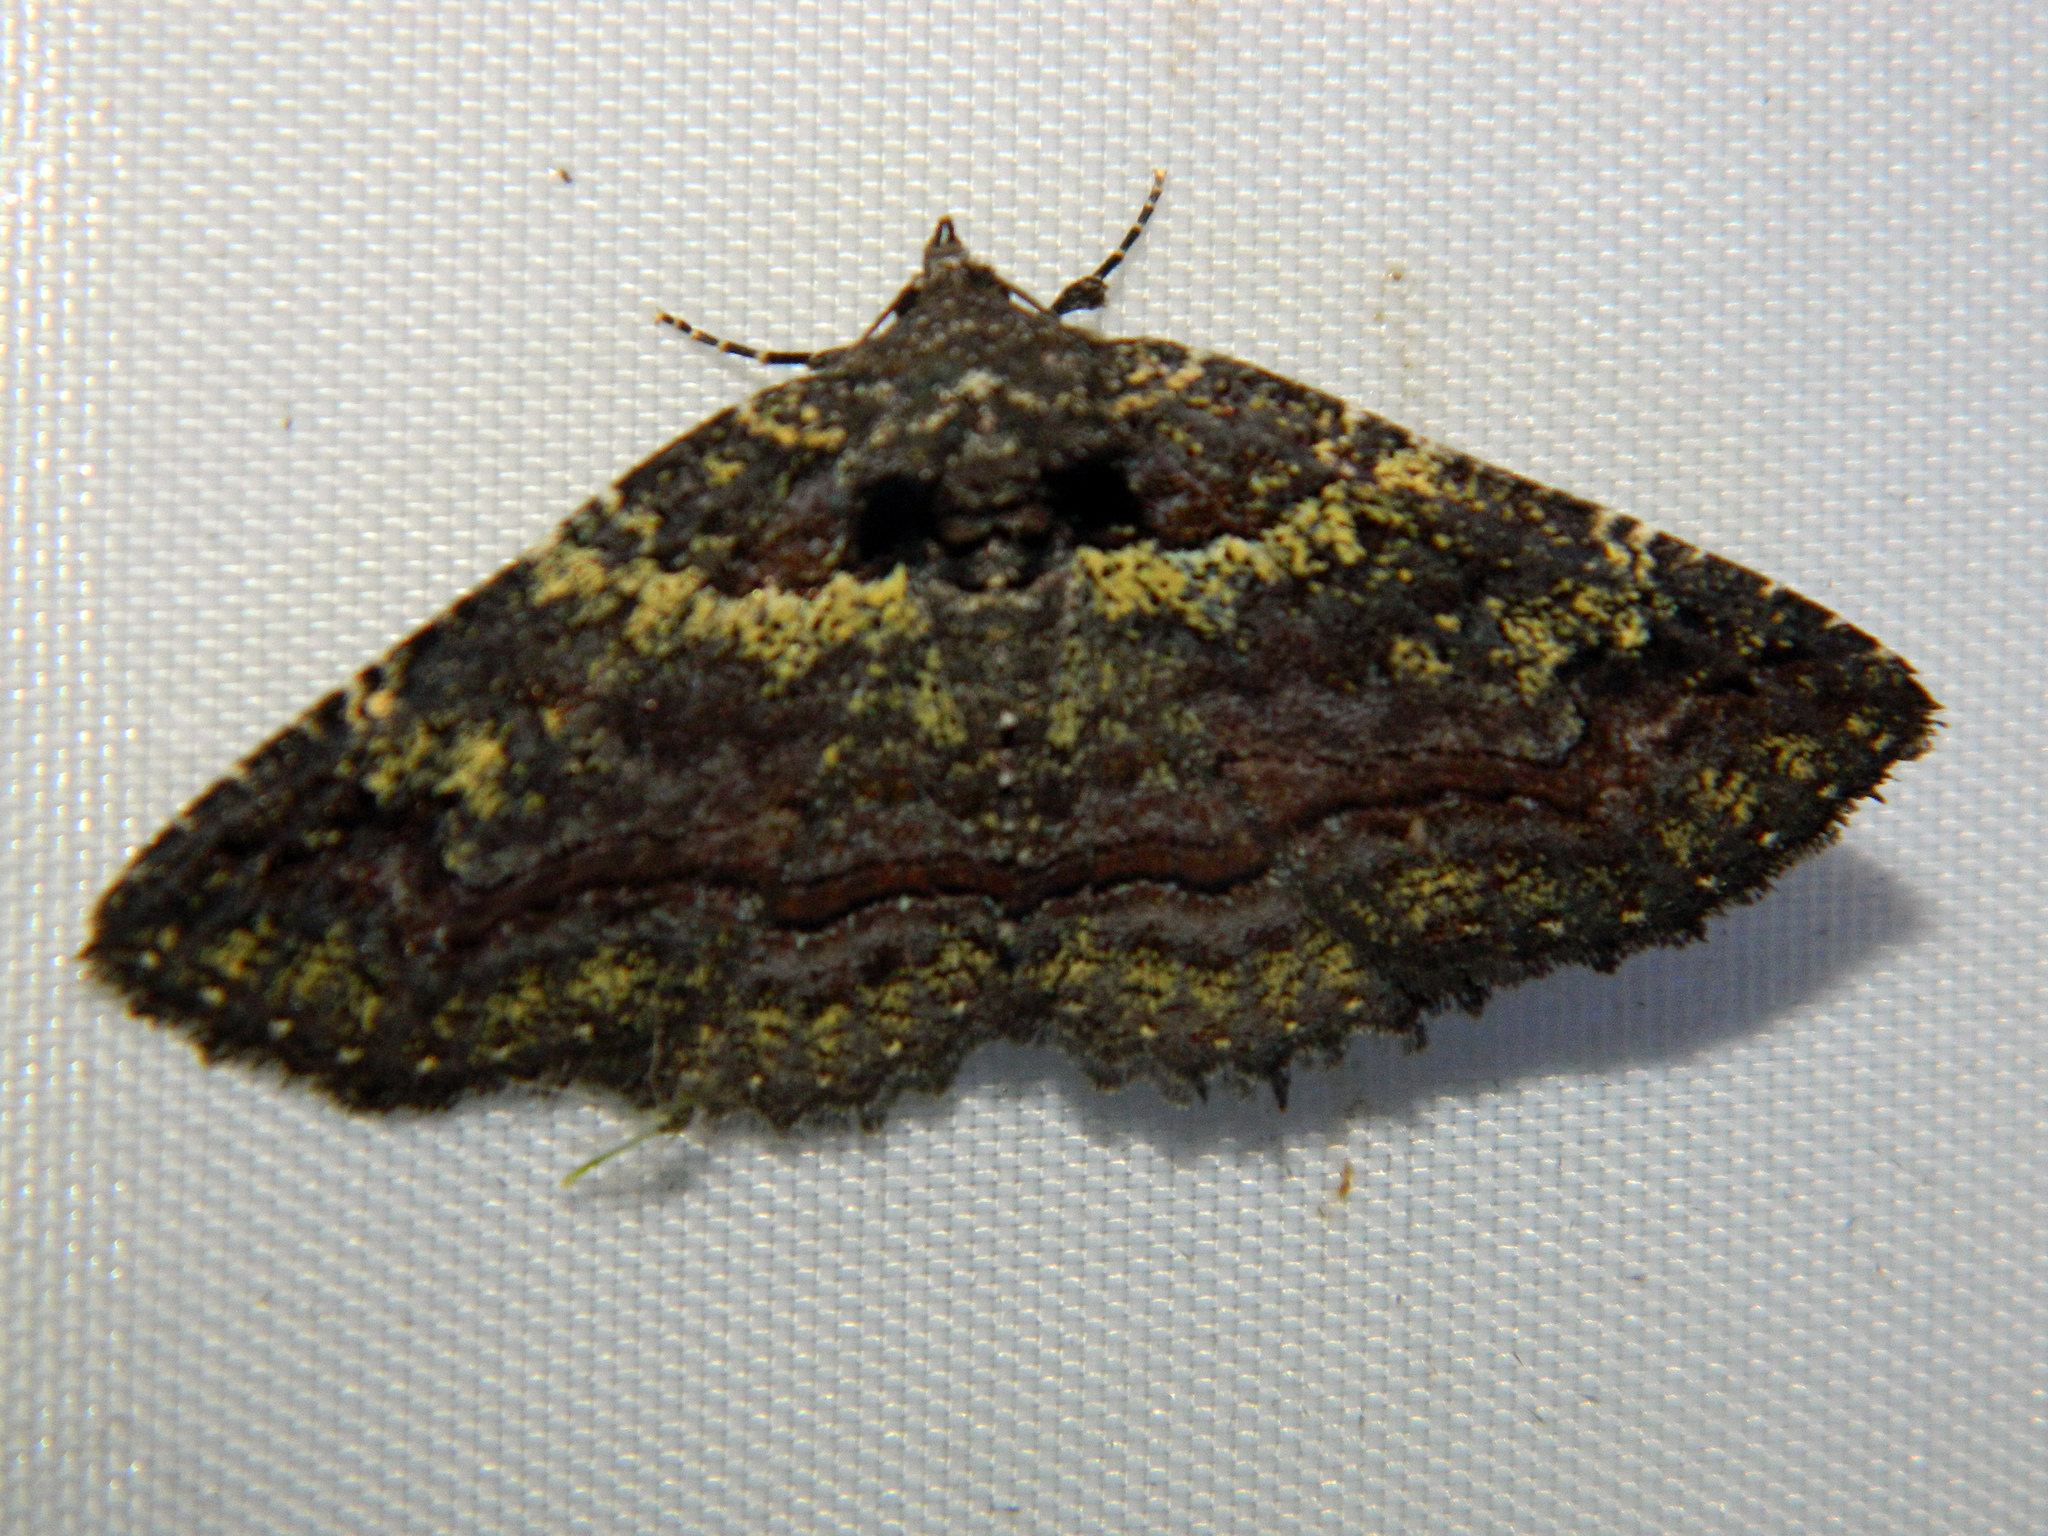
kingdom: Animalia
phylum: Arthropoda
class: Insecta
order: Lepidoptera
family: Erebidae
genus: Zale
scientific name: Zale aeruginosa
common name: Green-dusted zale moth
